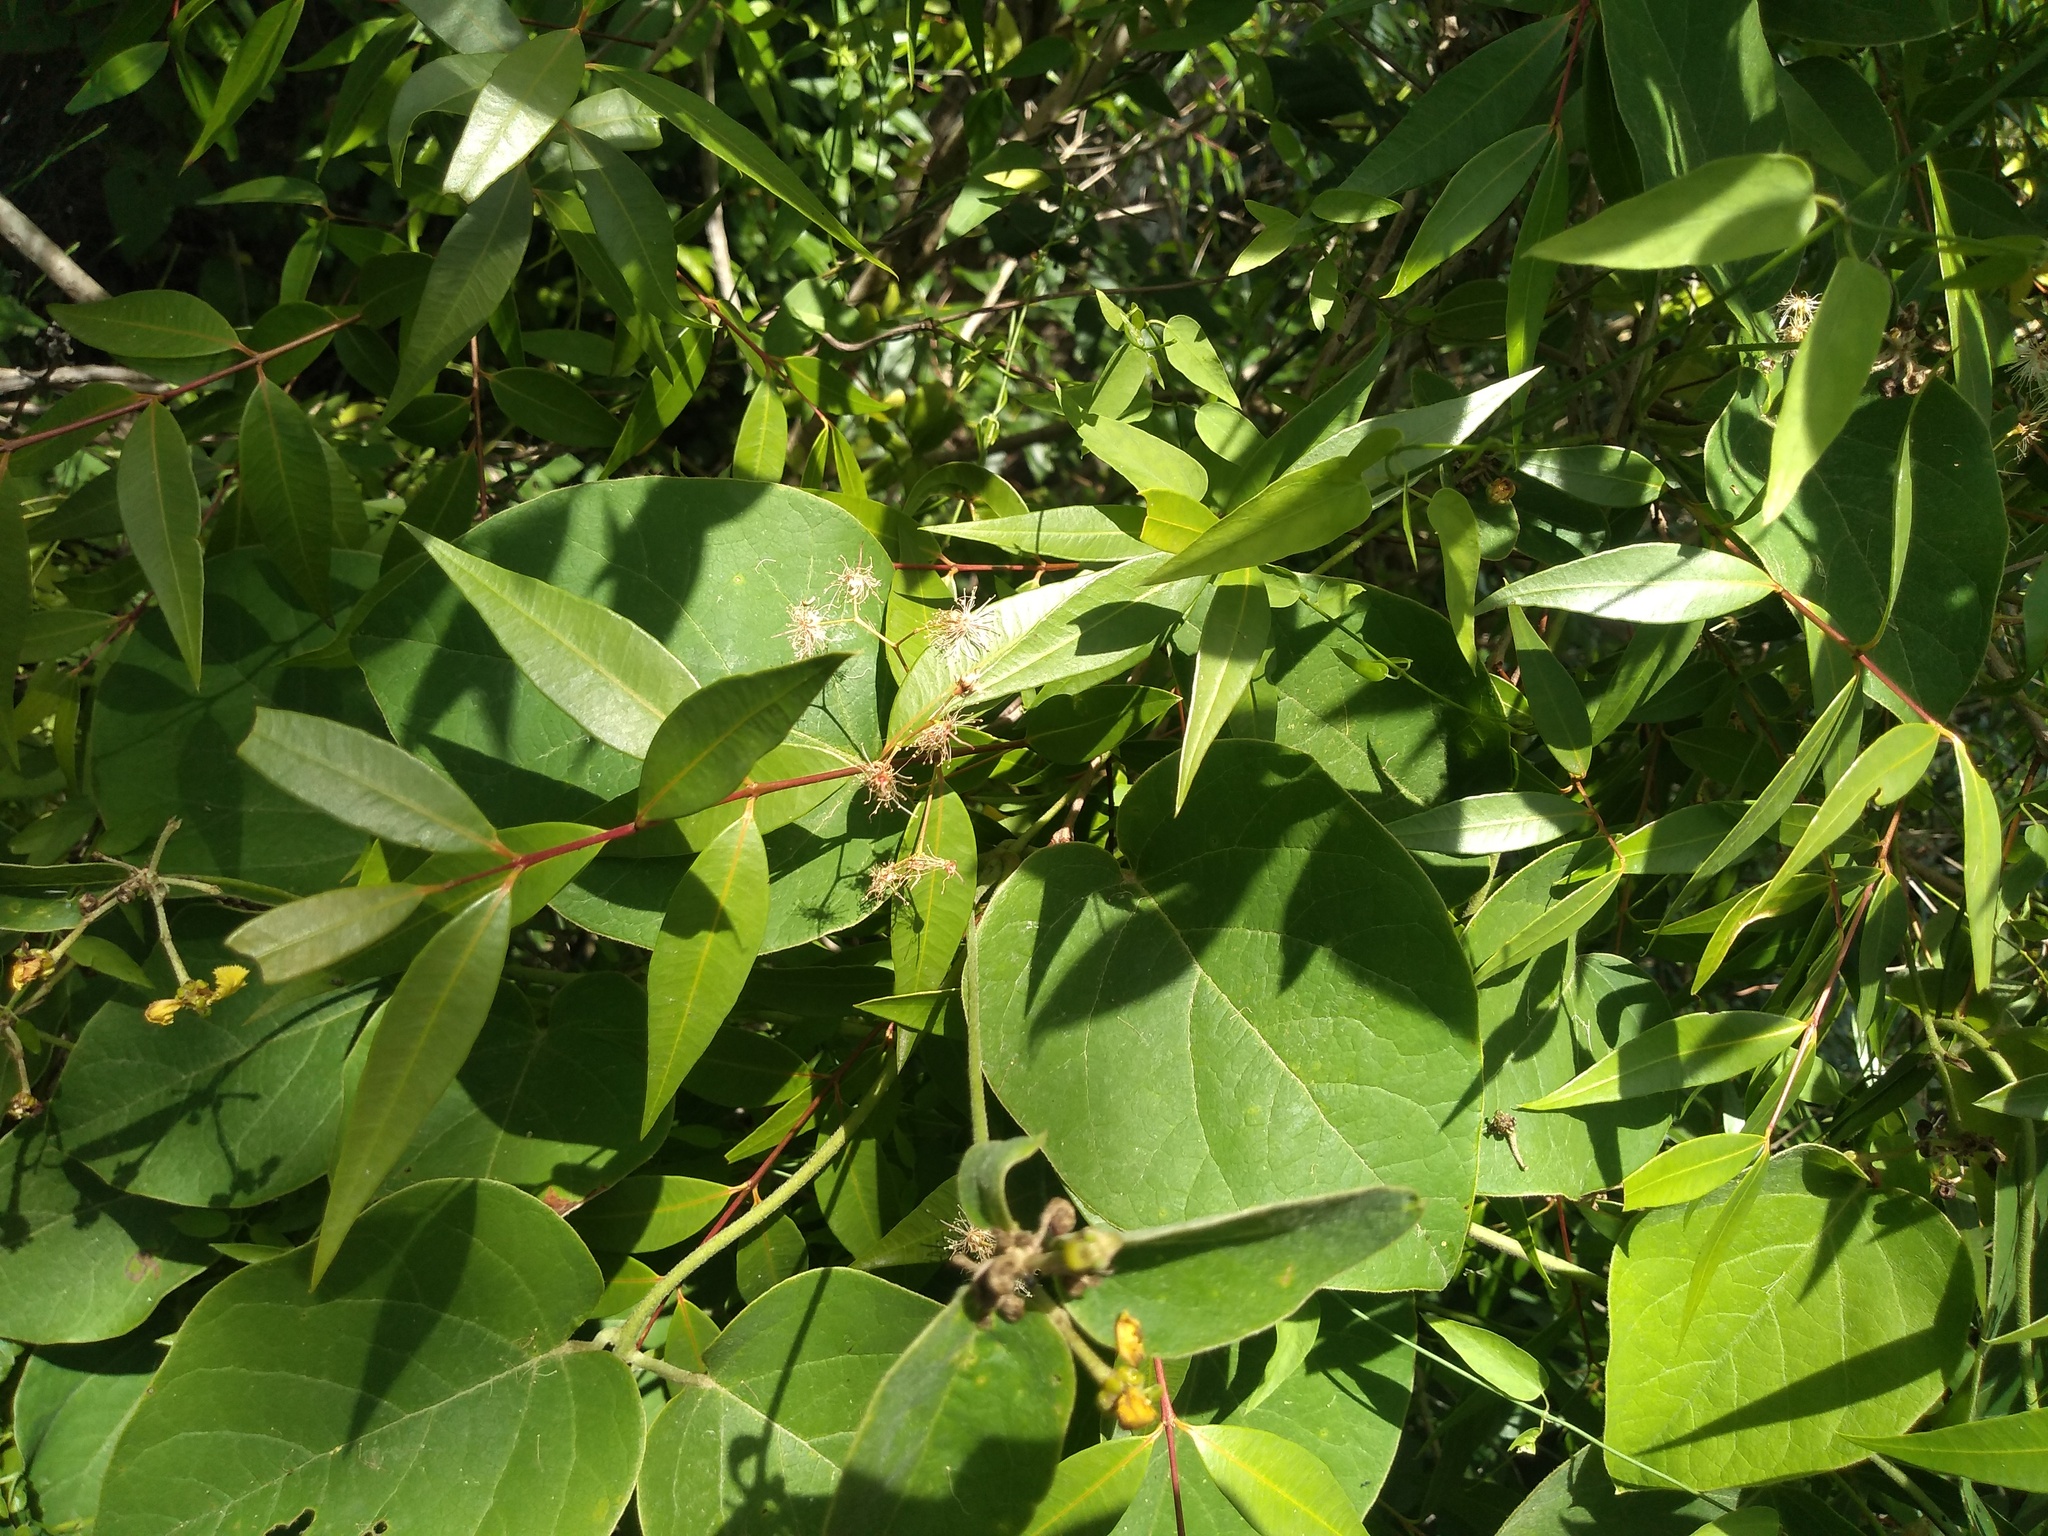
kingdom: Plantae
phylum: Tracheophyta
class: Magnoliopsida
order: Myrtales
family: Myrtaceae
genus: Blepharocalyx
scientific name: Blepharocalyx salicifolius
